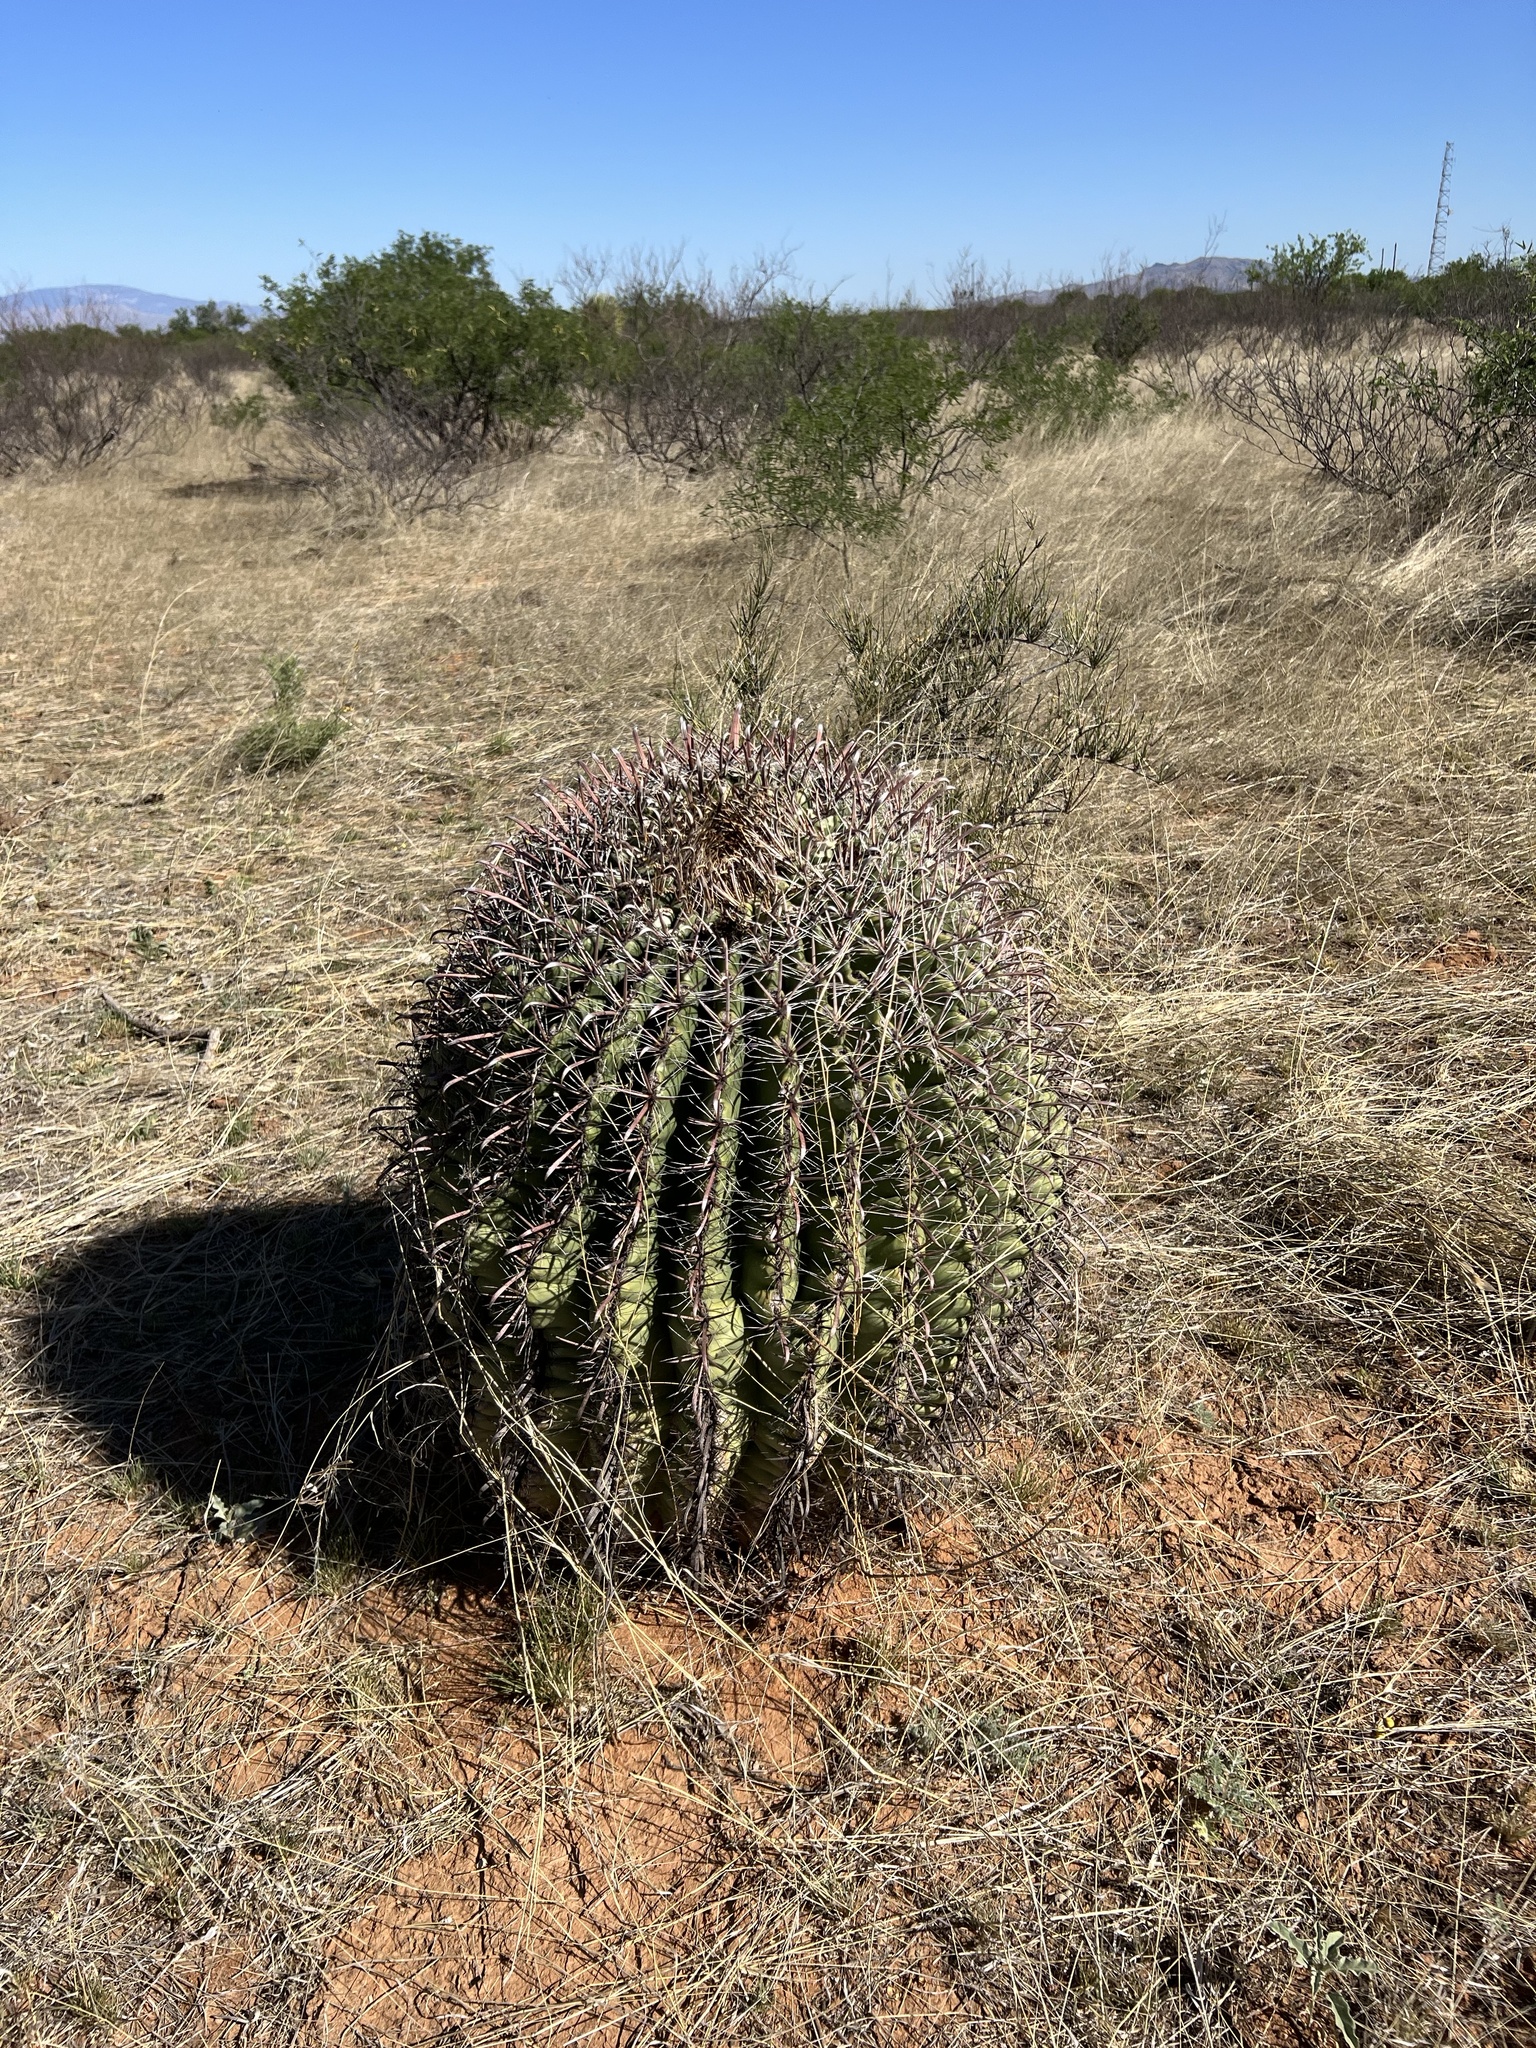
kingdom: Plantae
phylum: Tracheophyta
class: Magnoliopsida
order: Caryophyllales
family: Cactaceae
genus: Ferocactus
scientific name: Ferocactus wislizeni
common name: Candy barrel cactus
